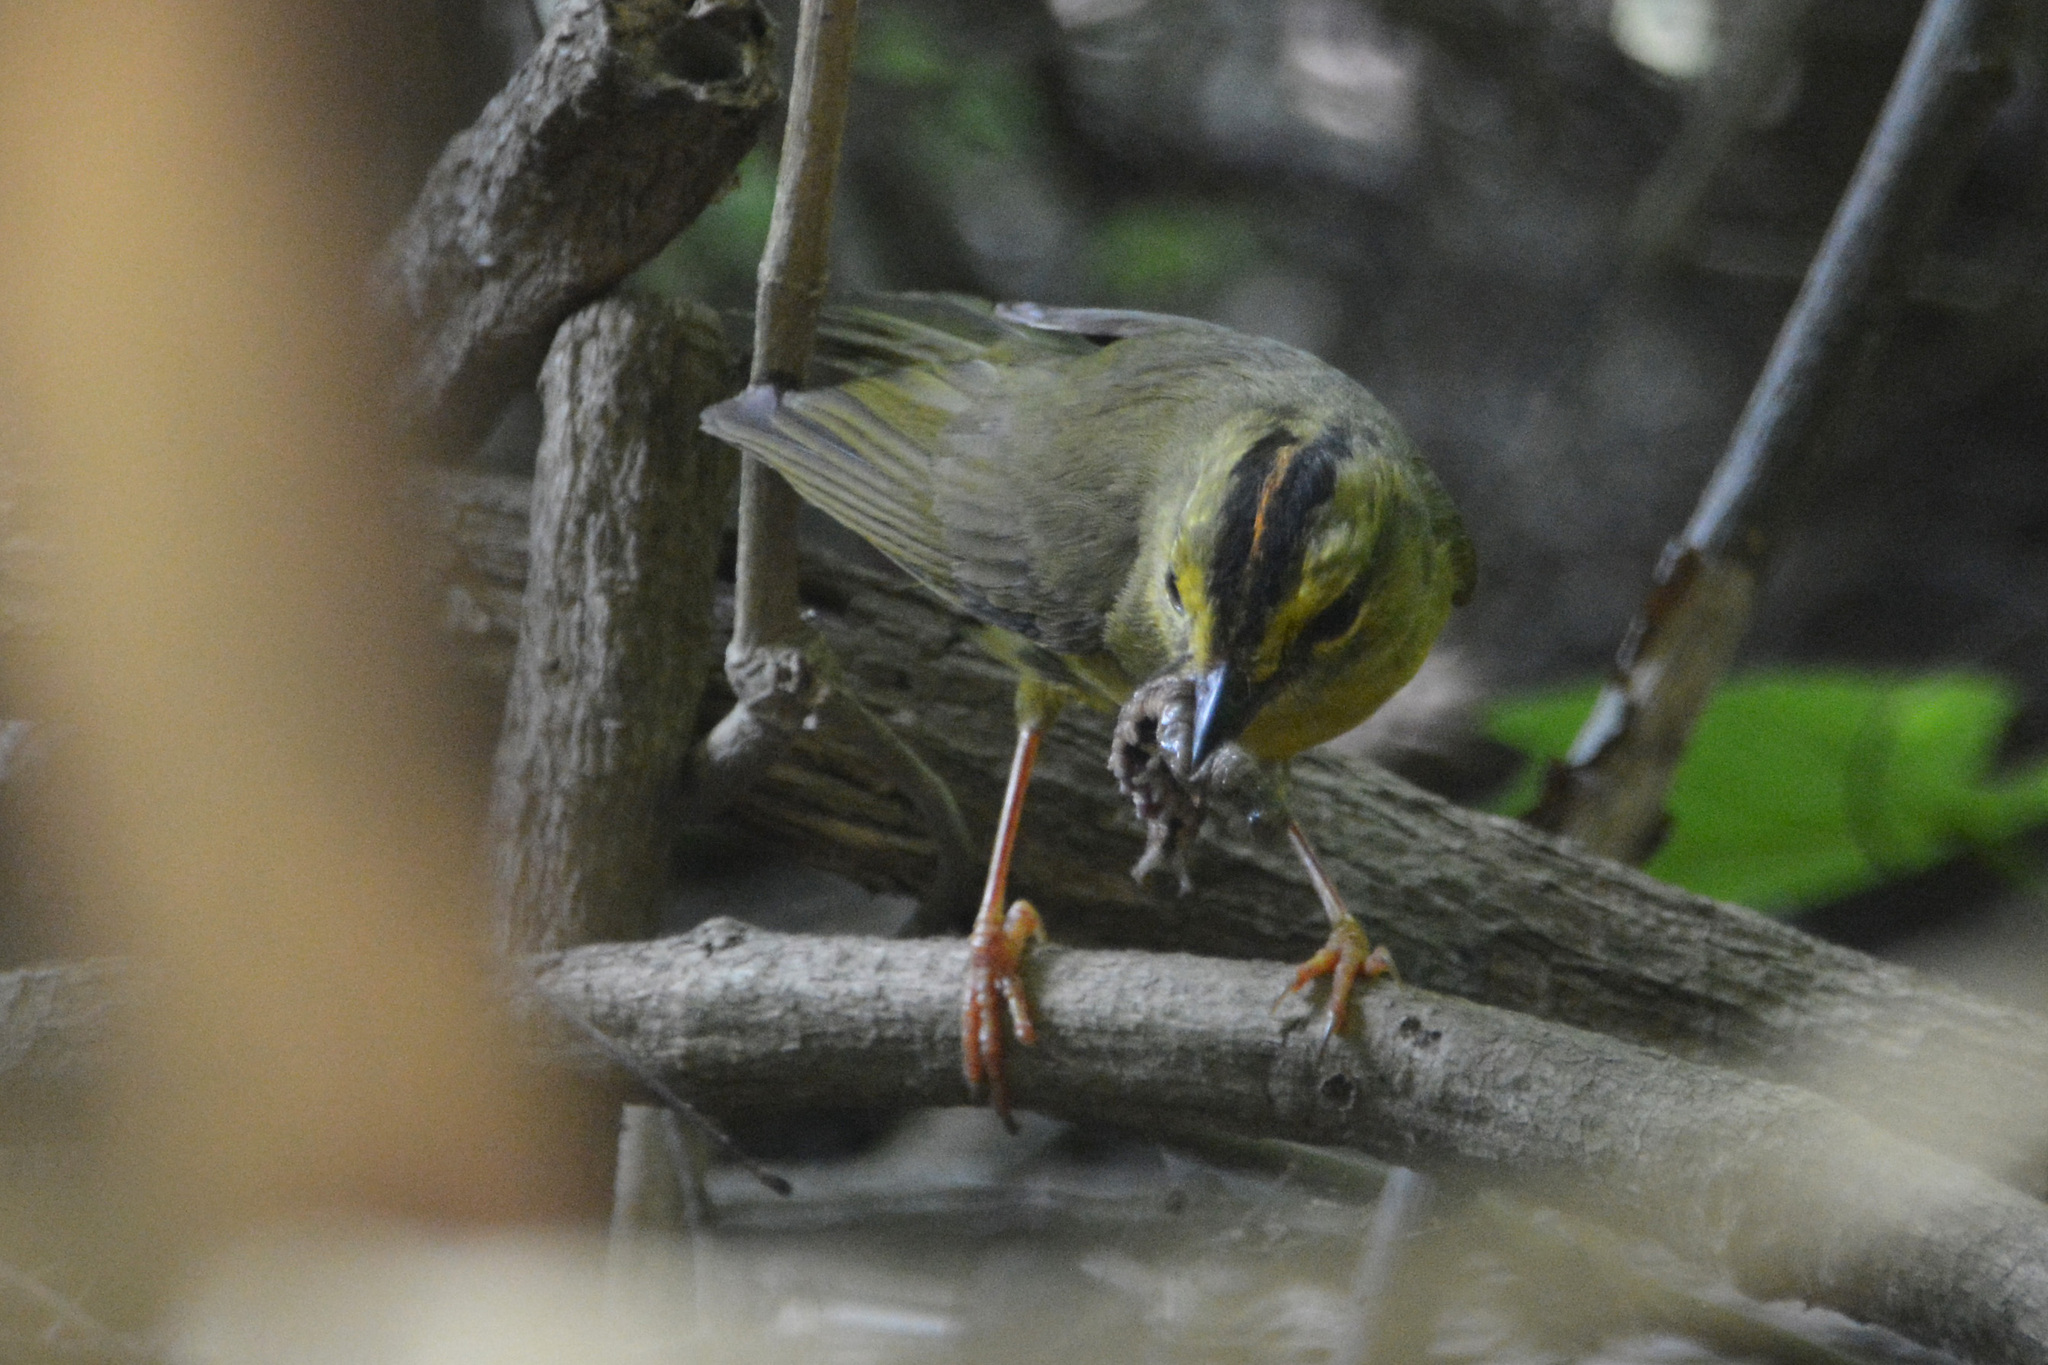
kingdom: Animalia
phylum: Chordata
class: Aves
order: Passeriformes
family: Parulidae
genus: Myiothlypis
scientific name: Myiothlypis bivittata
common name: Two-banded warbler
